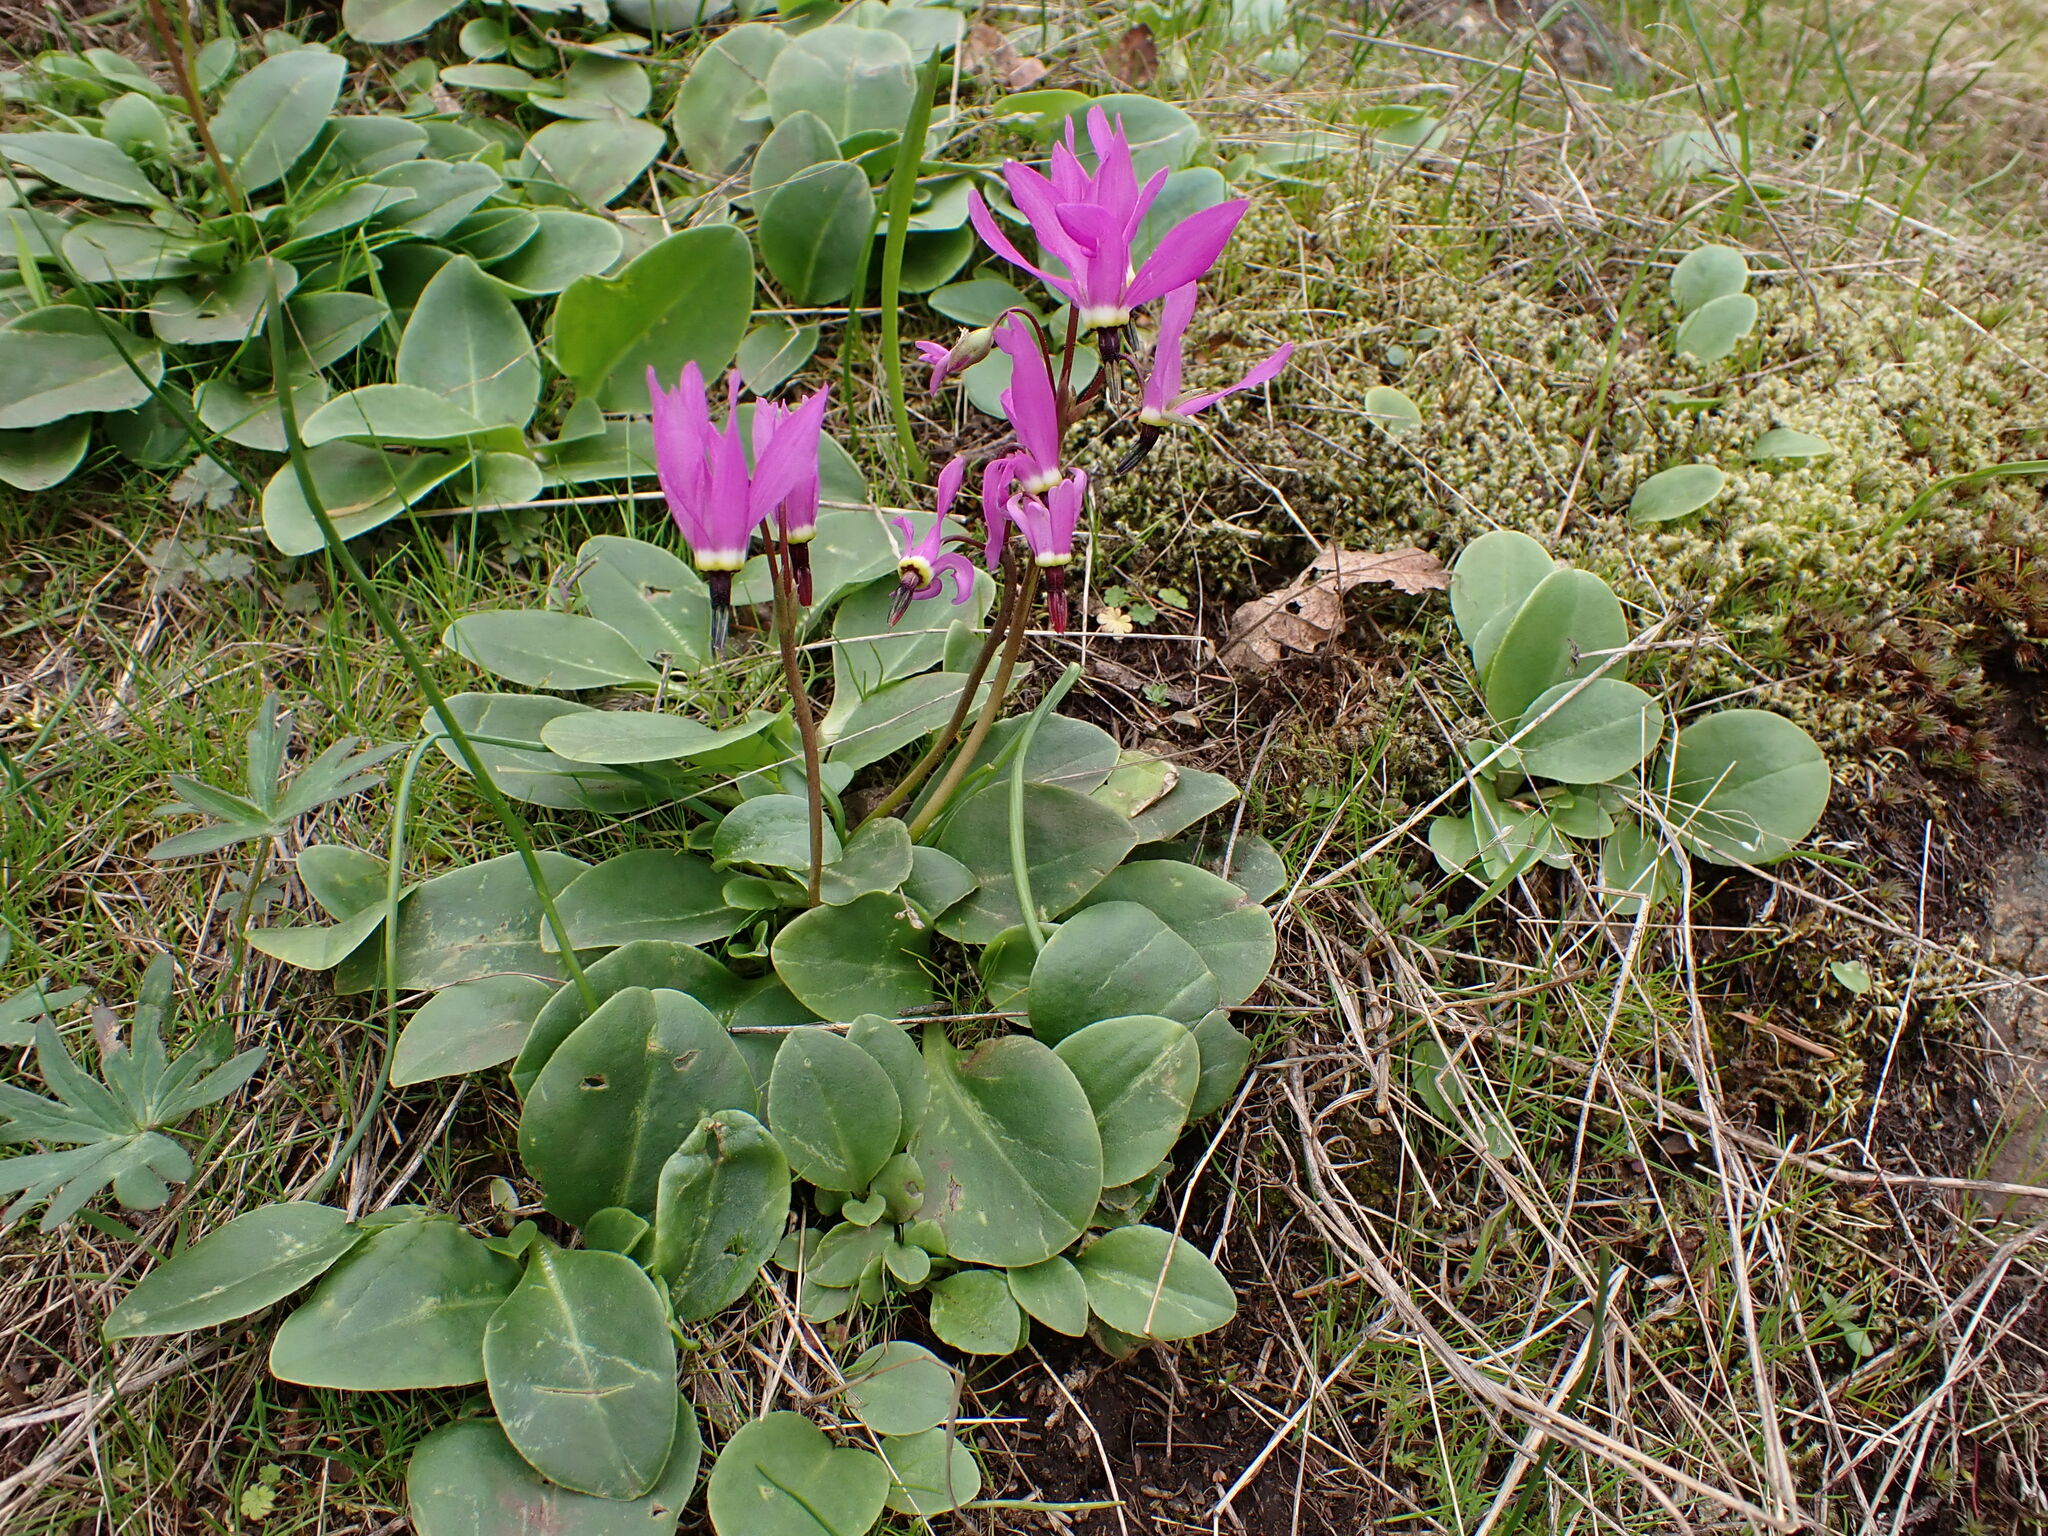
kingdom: Plantae
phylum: Tracheophyta
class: Magnoliopsida
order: Ericales
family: Primulaceae
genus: Dodecatheon
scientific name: Dodecatheon hendersonii
